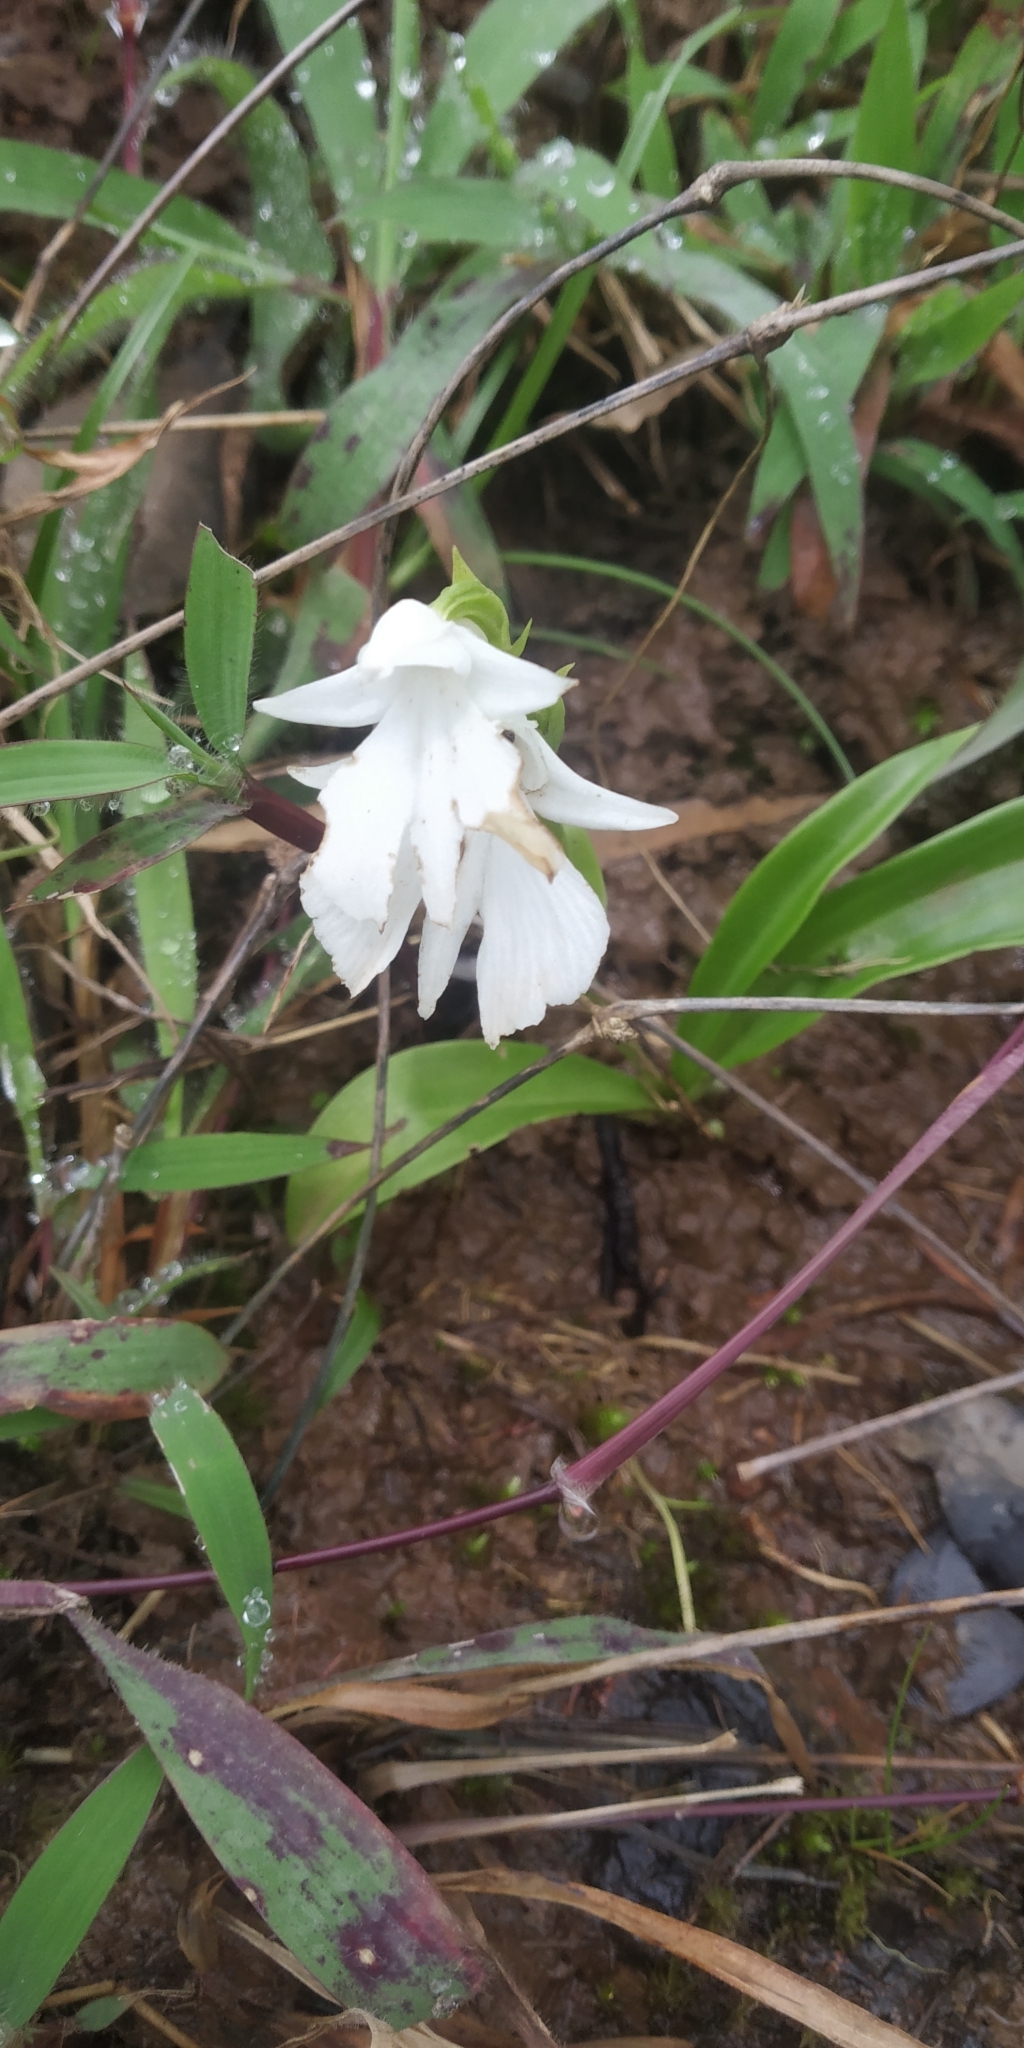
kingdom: Plantae
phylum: Tracheophyta
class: Liliopsida
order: Asparagales
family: Orchidaceae
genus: Habenaria
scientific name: Habenaria suaveolens
